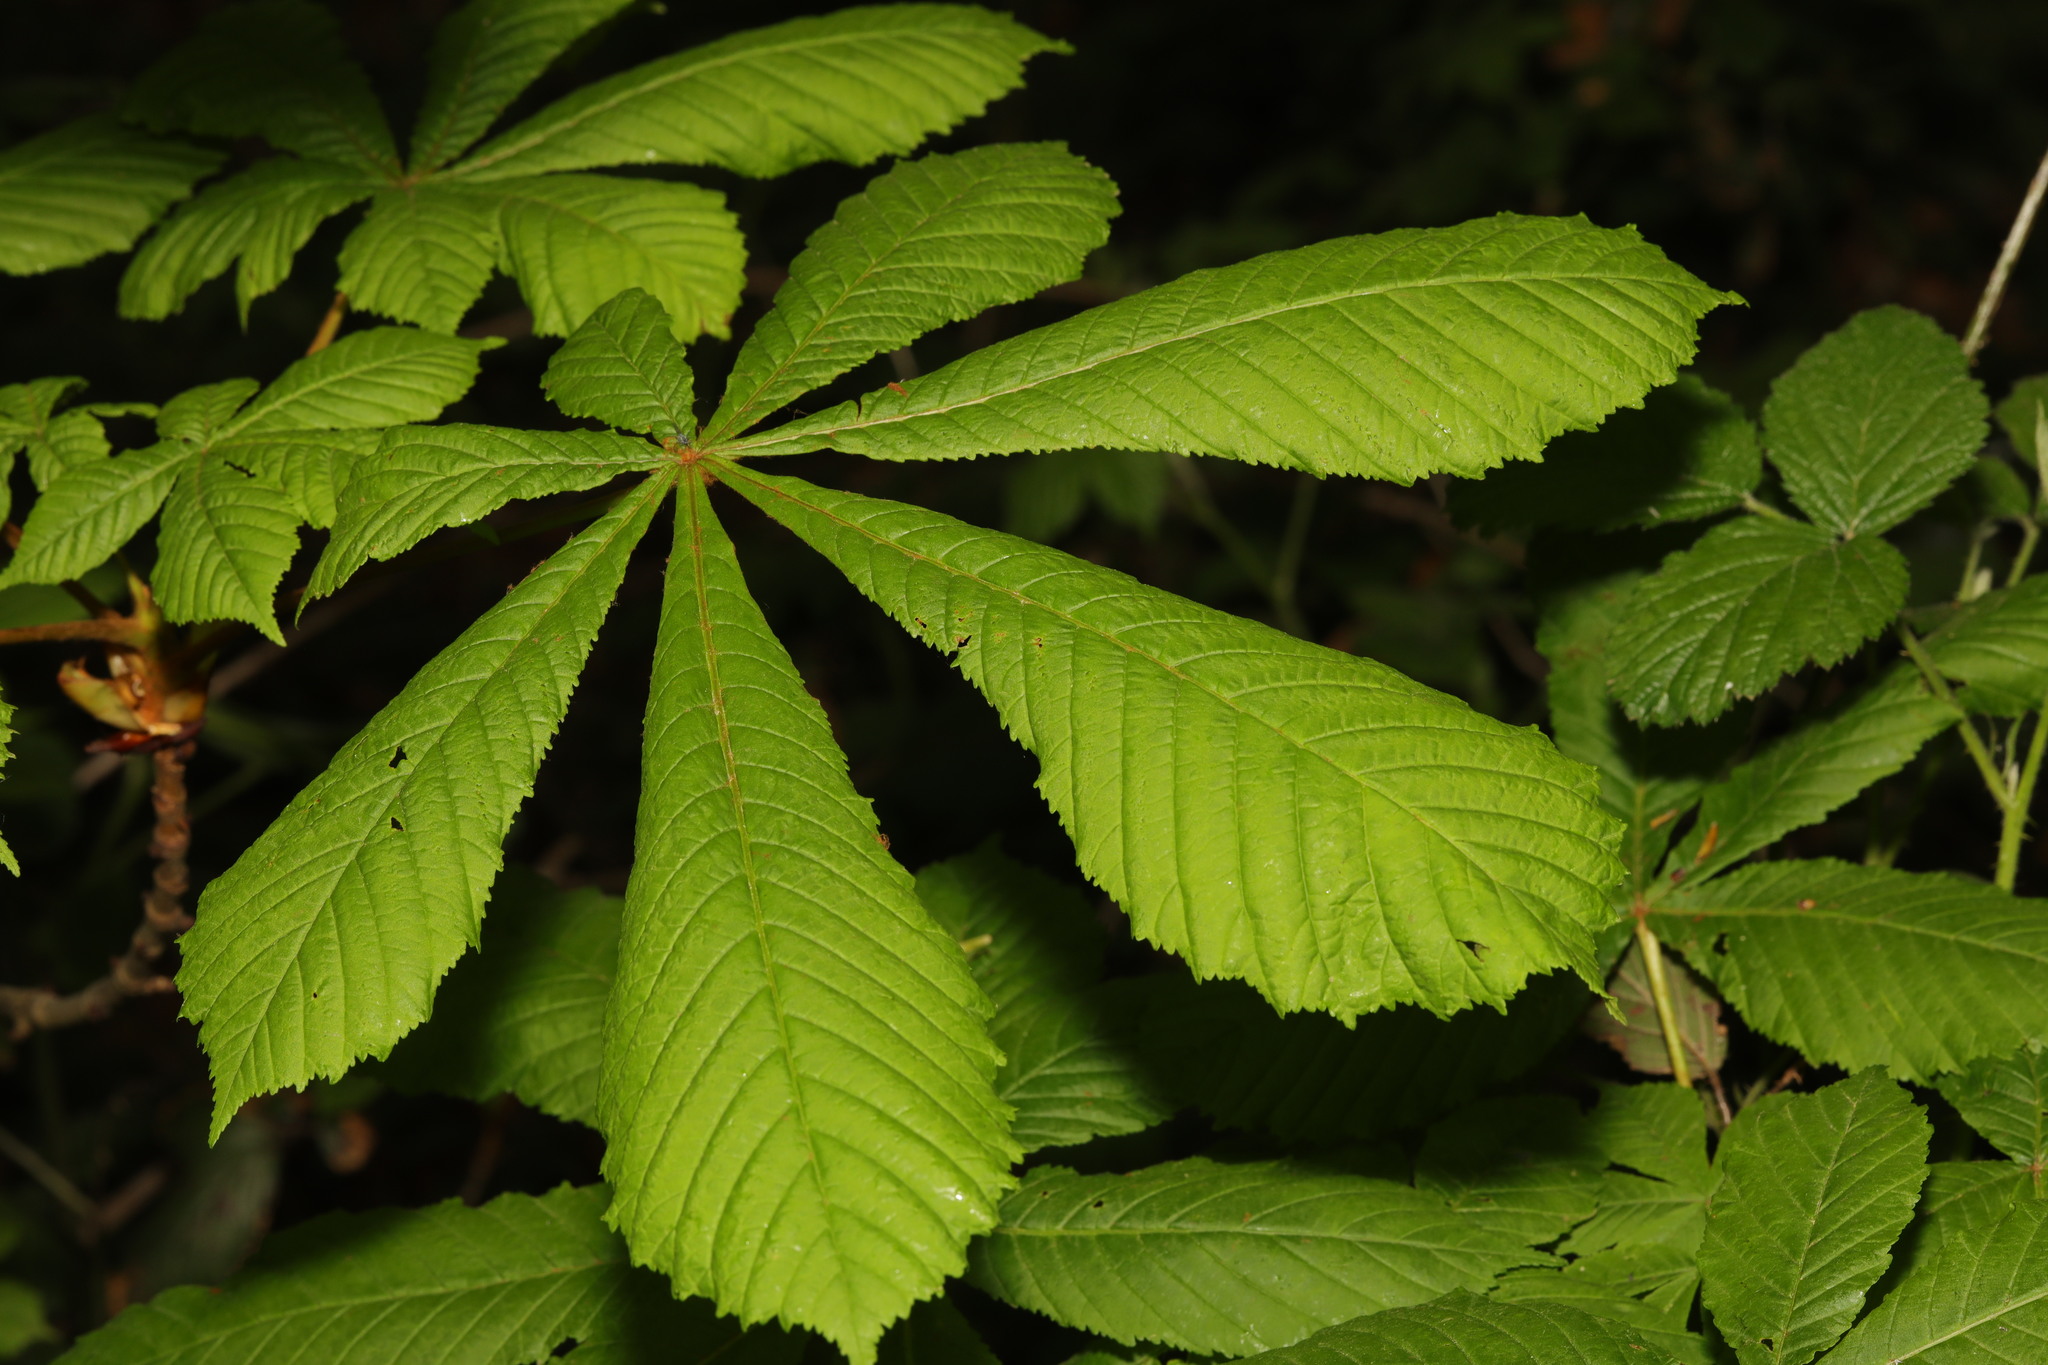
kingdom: Plantae
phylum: Tracheophyta
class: Magnoliopsida
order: Sapindales
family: Sapindaceae
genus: Aesculus
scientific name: Aesculus hippocastanum
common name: Horse-chestnut
